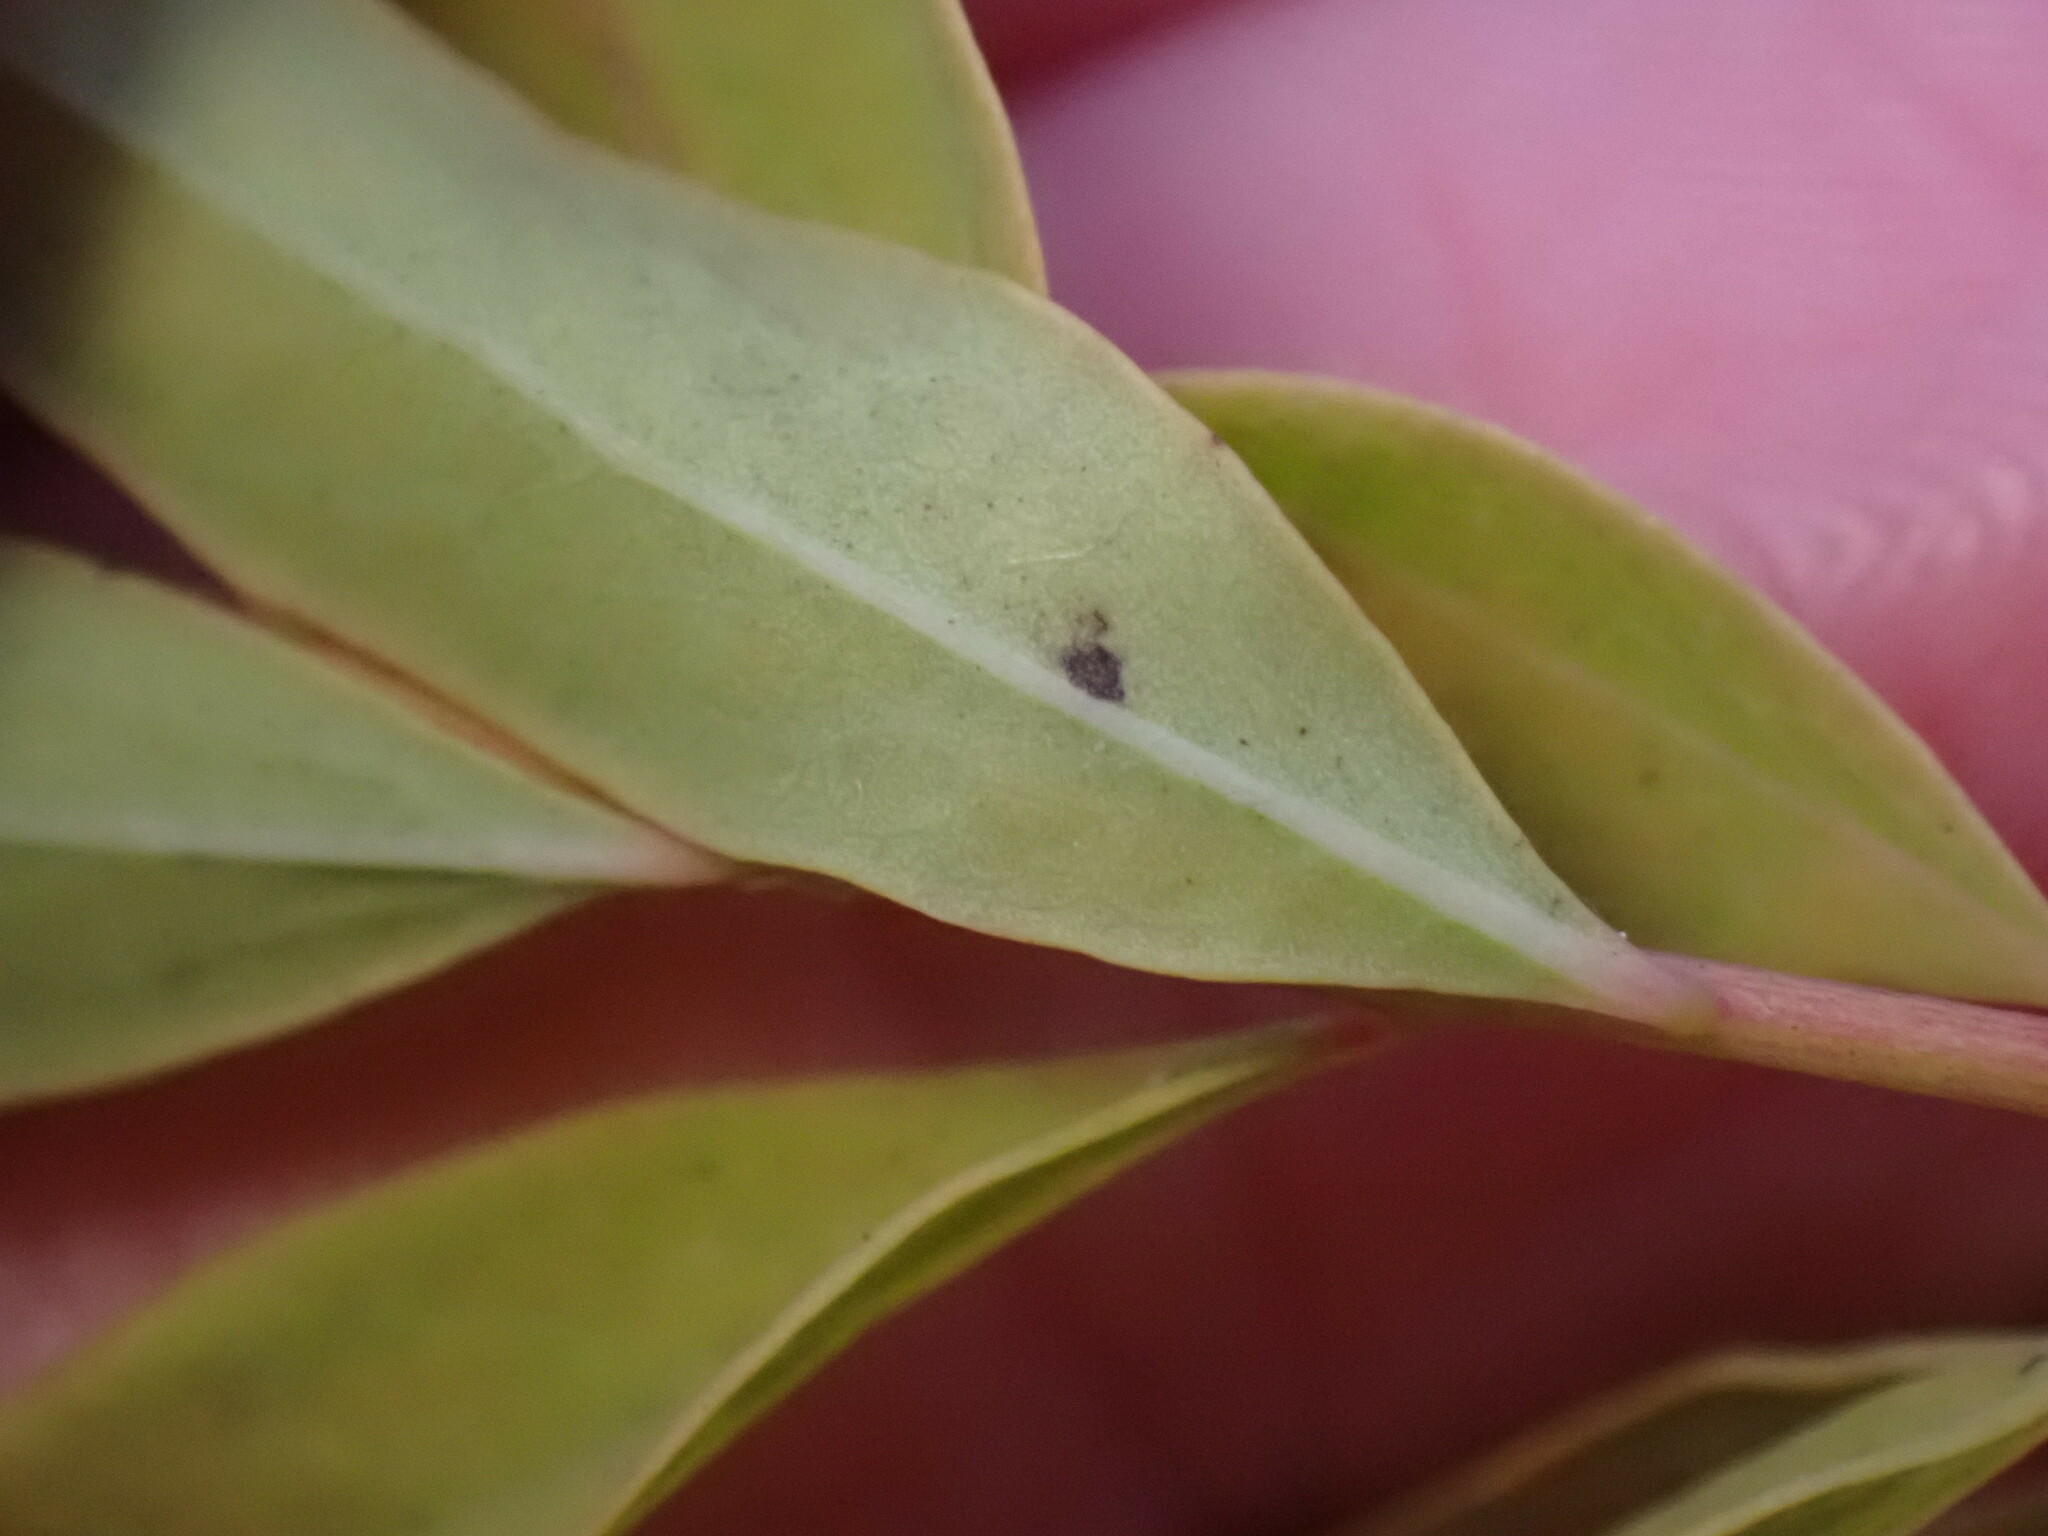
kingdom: Plantae
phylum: Tracheophyta
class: Magnoliopsida
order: Santalales
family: Comandraceae
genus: Comandra
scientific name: Comandra umbellata
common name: Bastard toadflax
